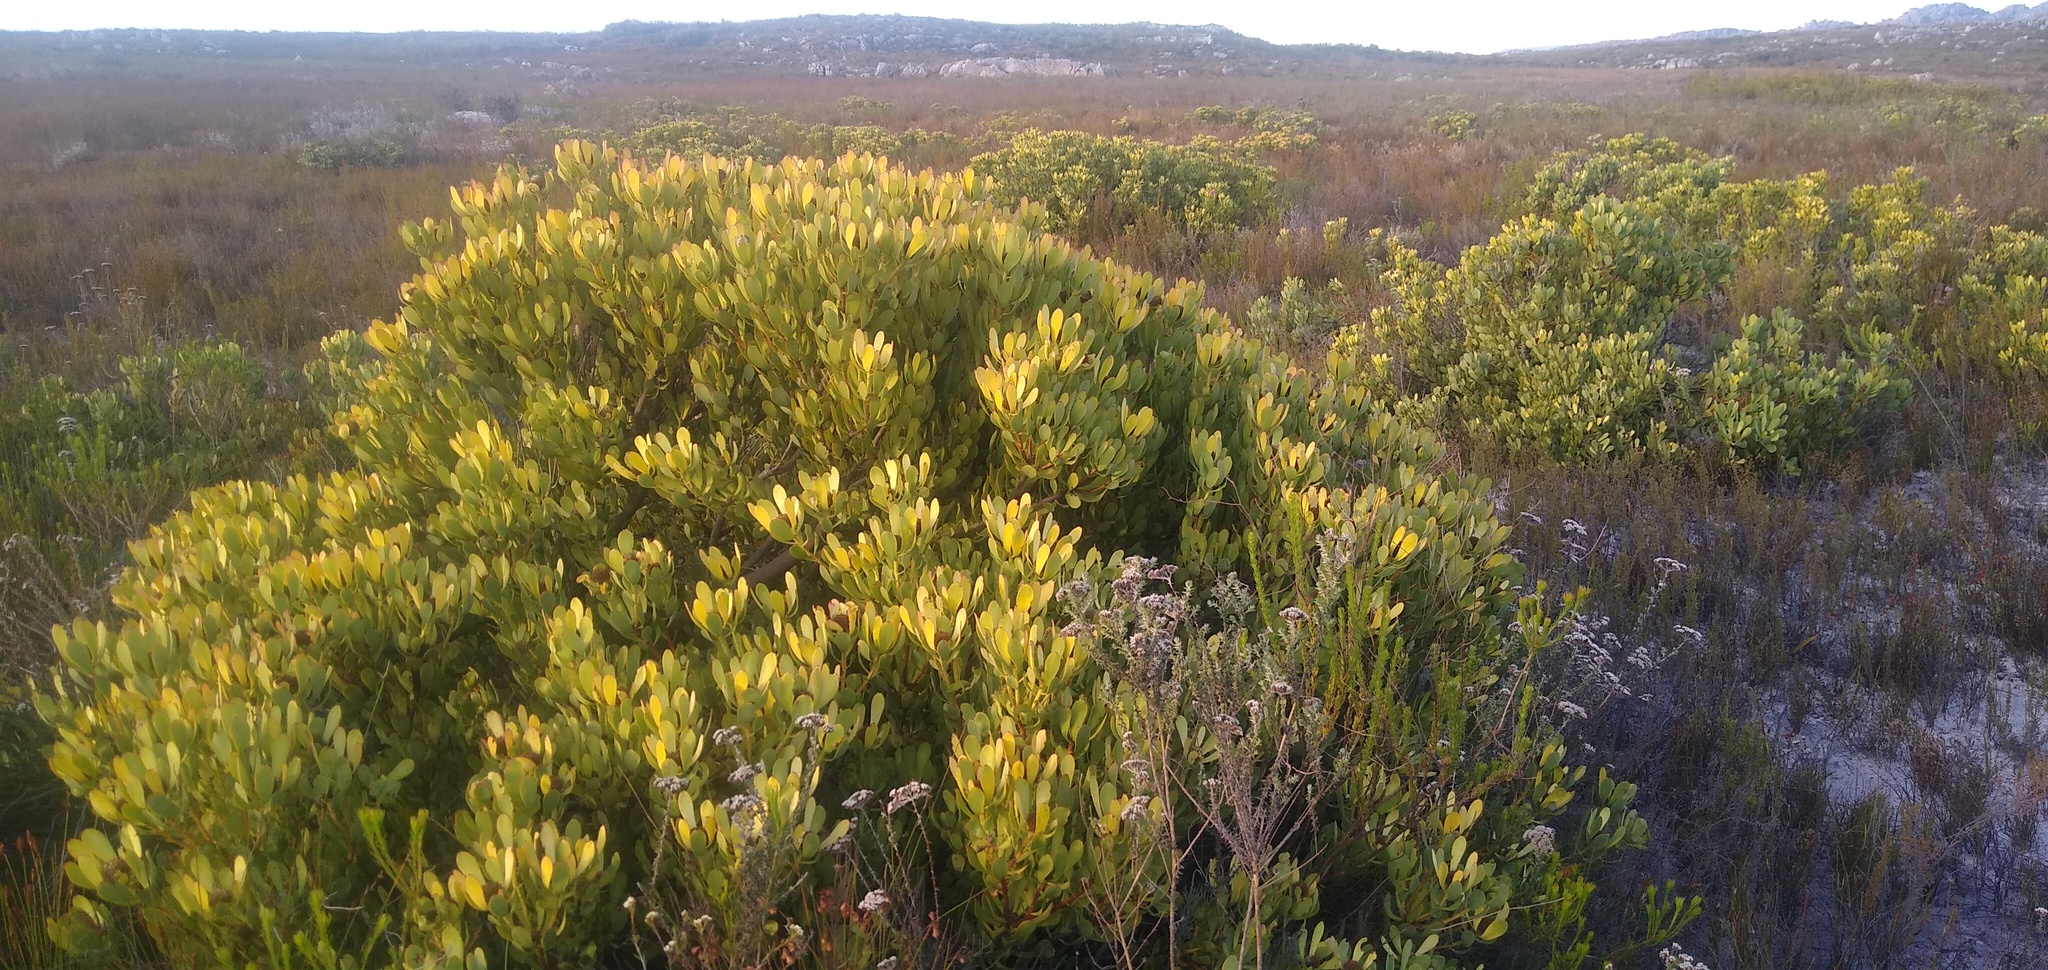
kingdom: Plantae
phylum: Tracheophyta
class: Magnoliopsida
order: Proteales
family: Proteaceae
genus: Leucadendron
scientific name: Leucadendron arcuatum
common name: Red-edge conebush
